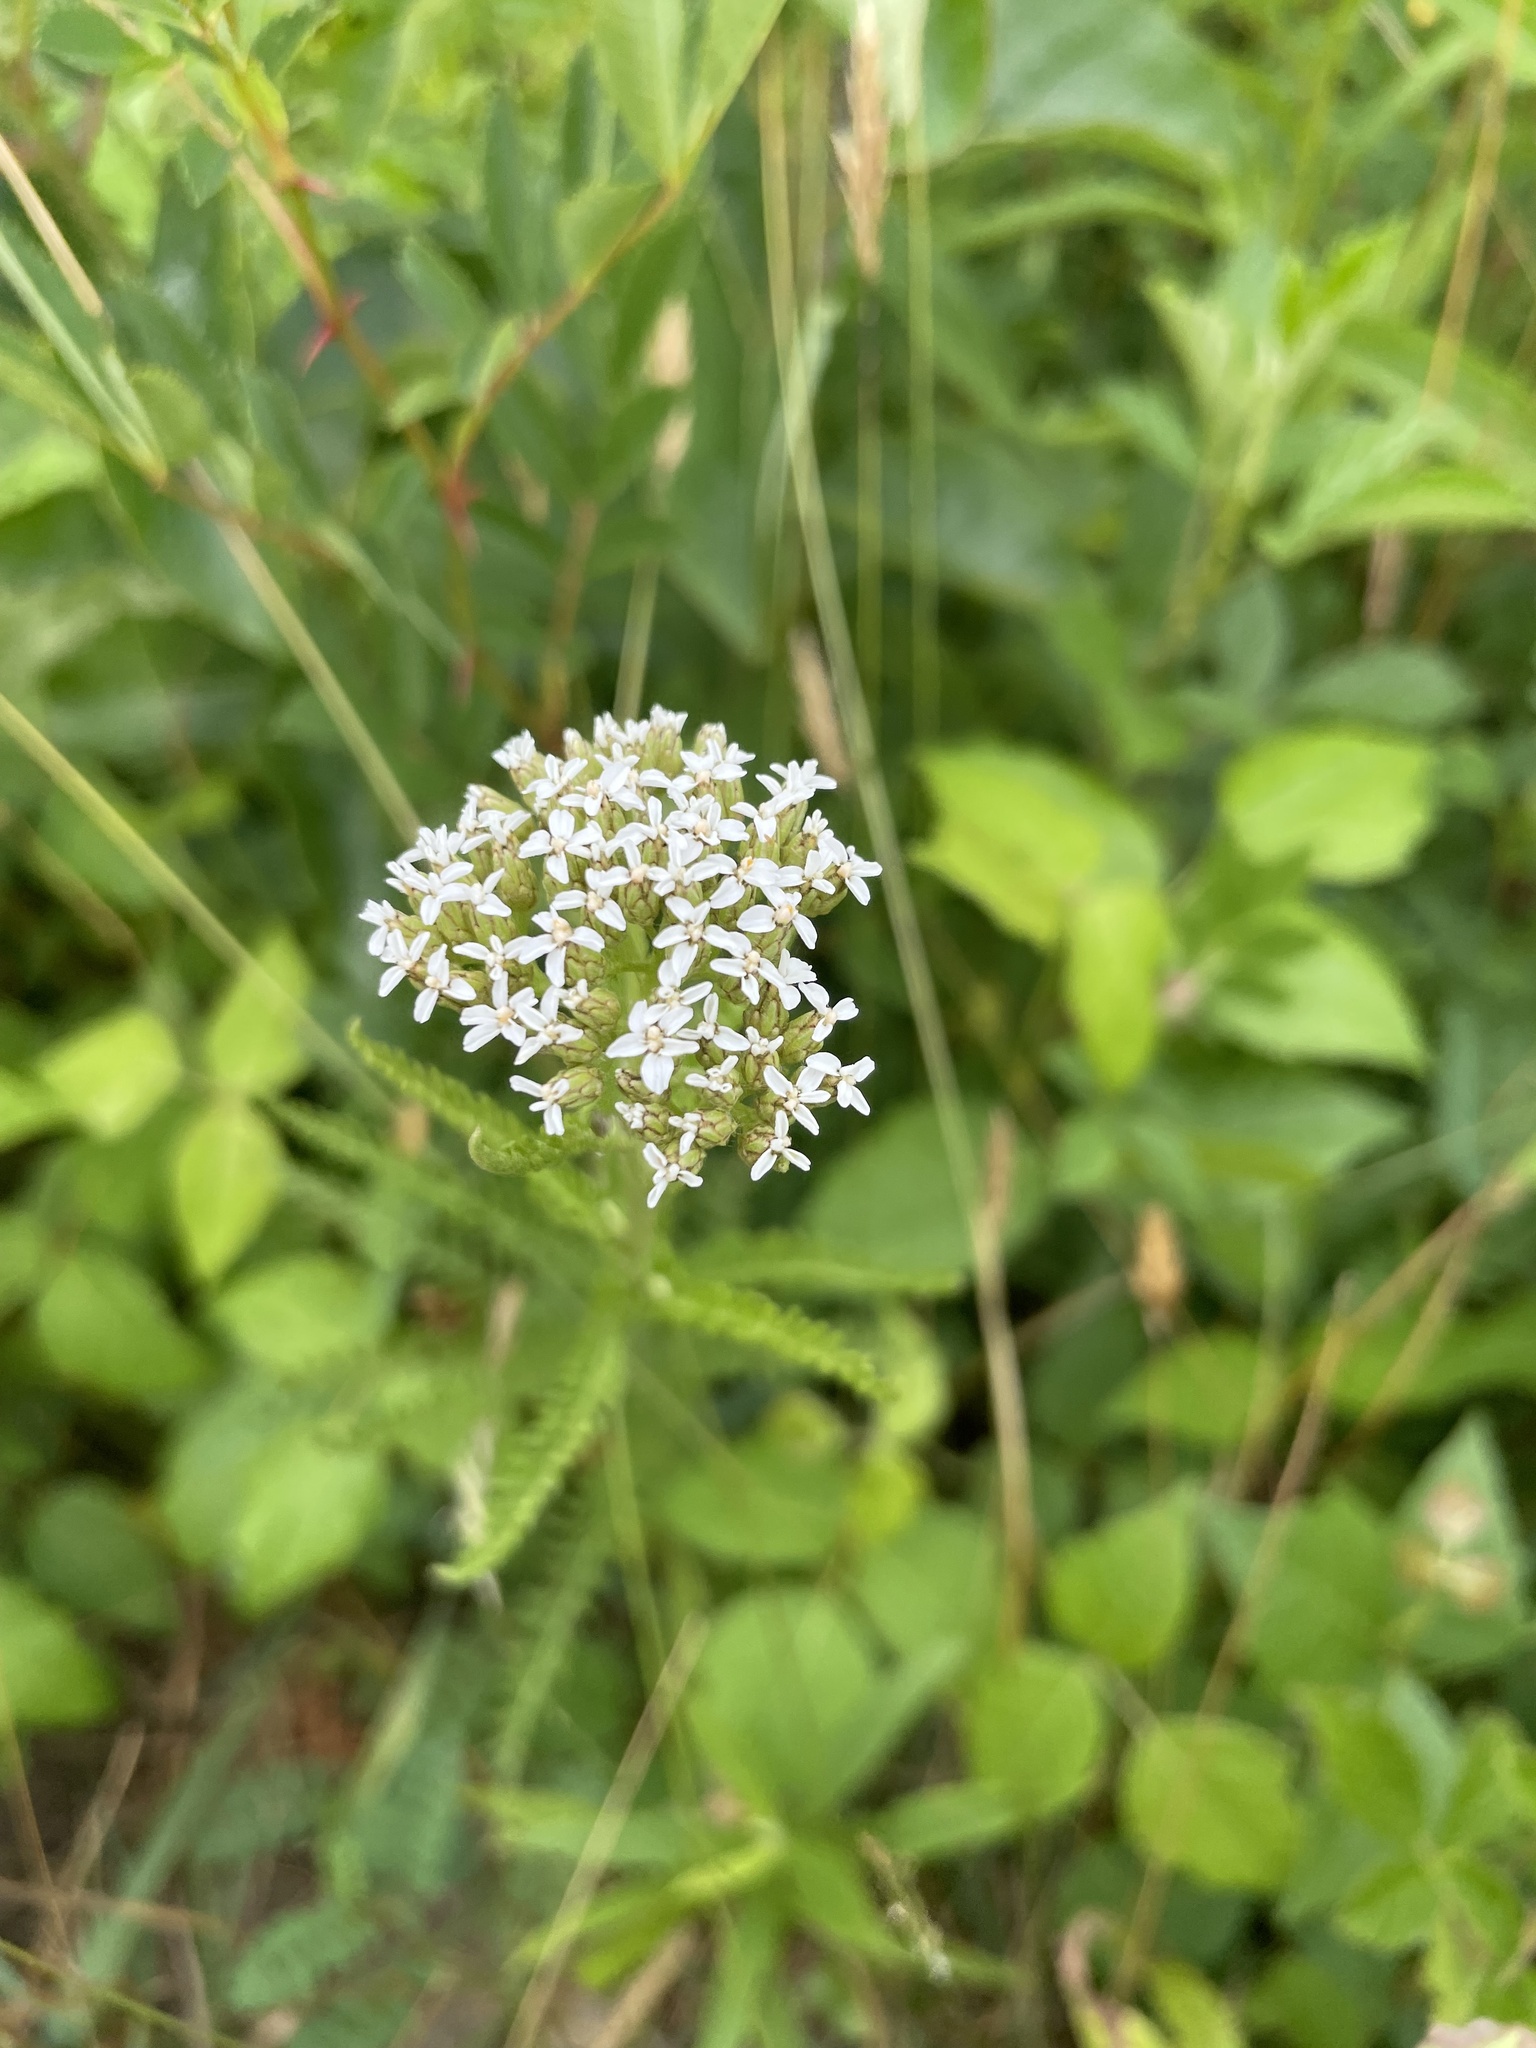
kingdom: Plantae
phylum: Tracheophyta
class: Magnoliopsida
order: Asterales
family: Asteraceae
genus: Achillea
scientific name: Achillea millefolium
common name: Yarrow
